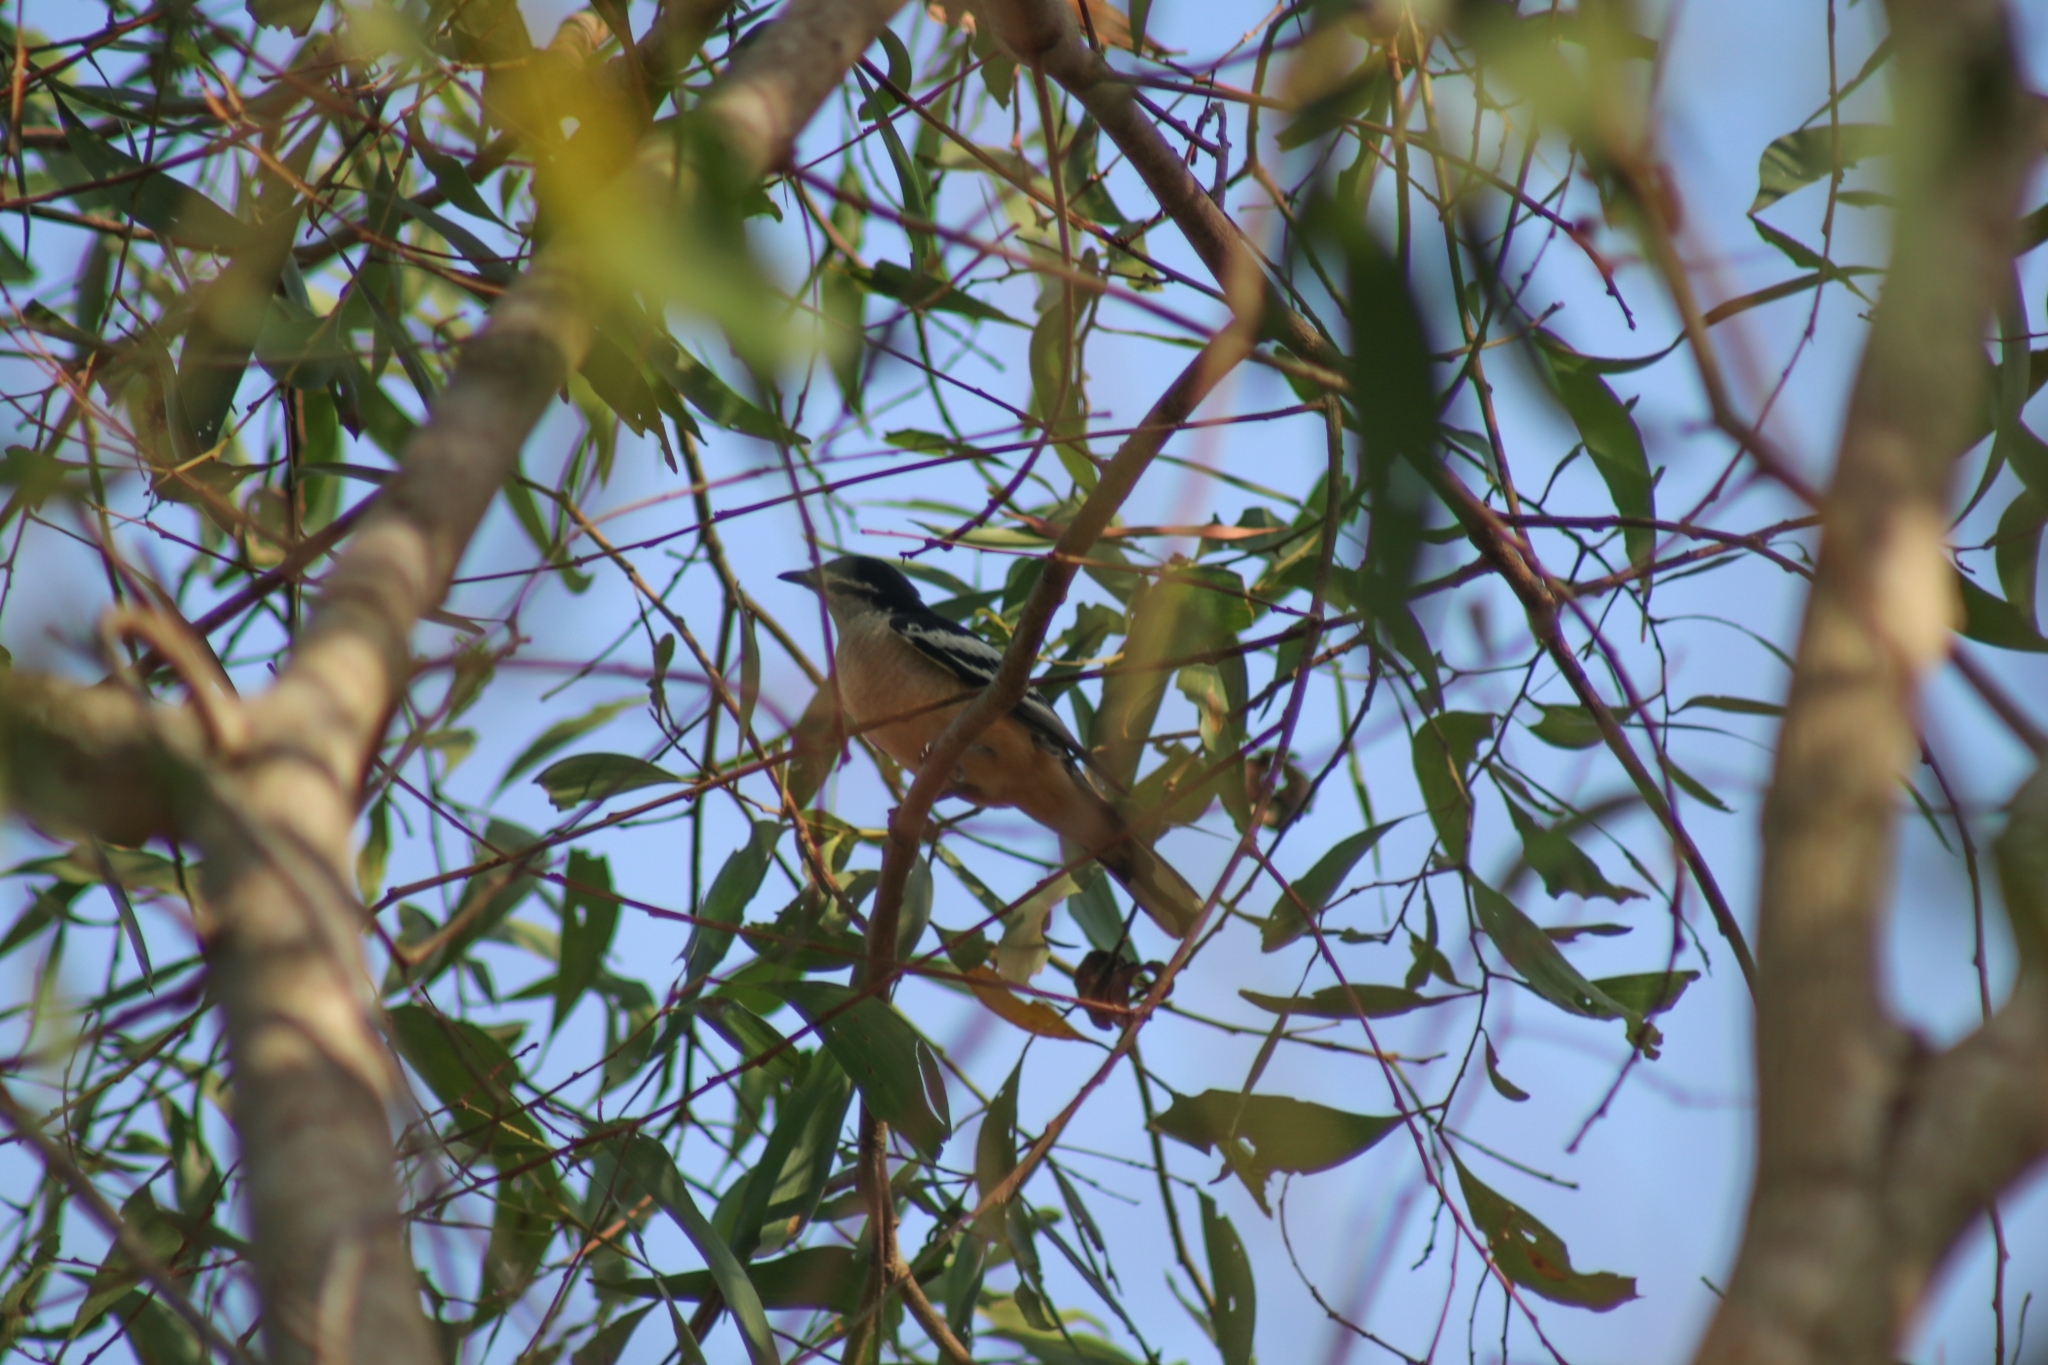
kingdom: Animalia
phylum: Chordata
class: Aves
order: Passeriformes
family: Campephagidae
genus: Lalage
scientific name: Lalage leucomela
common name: Varied triller
